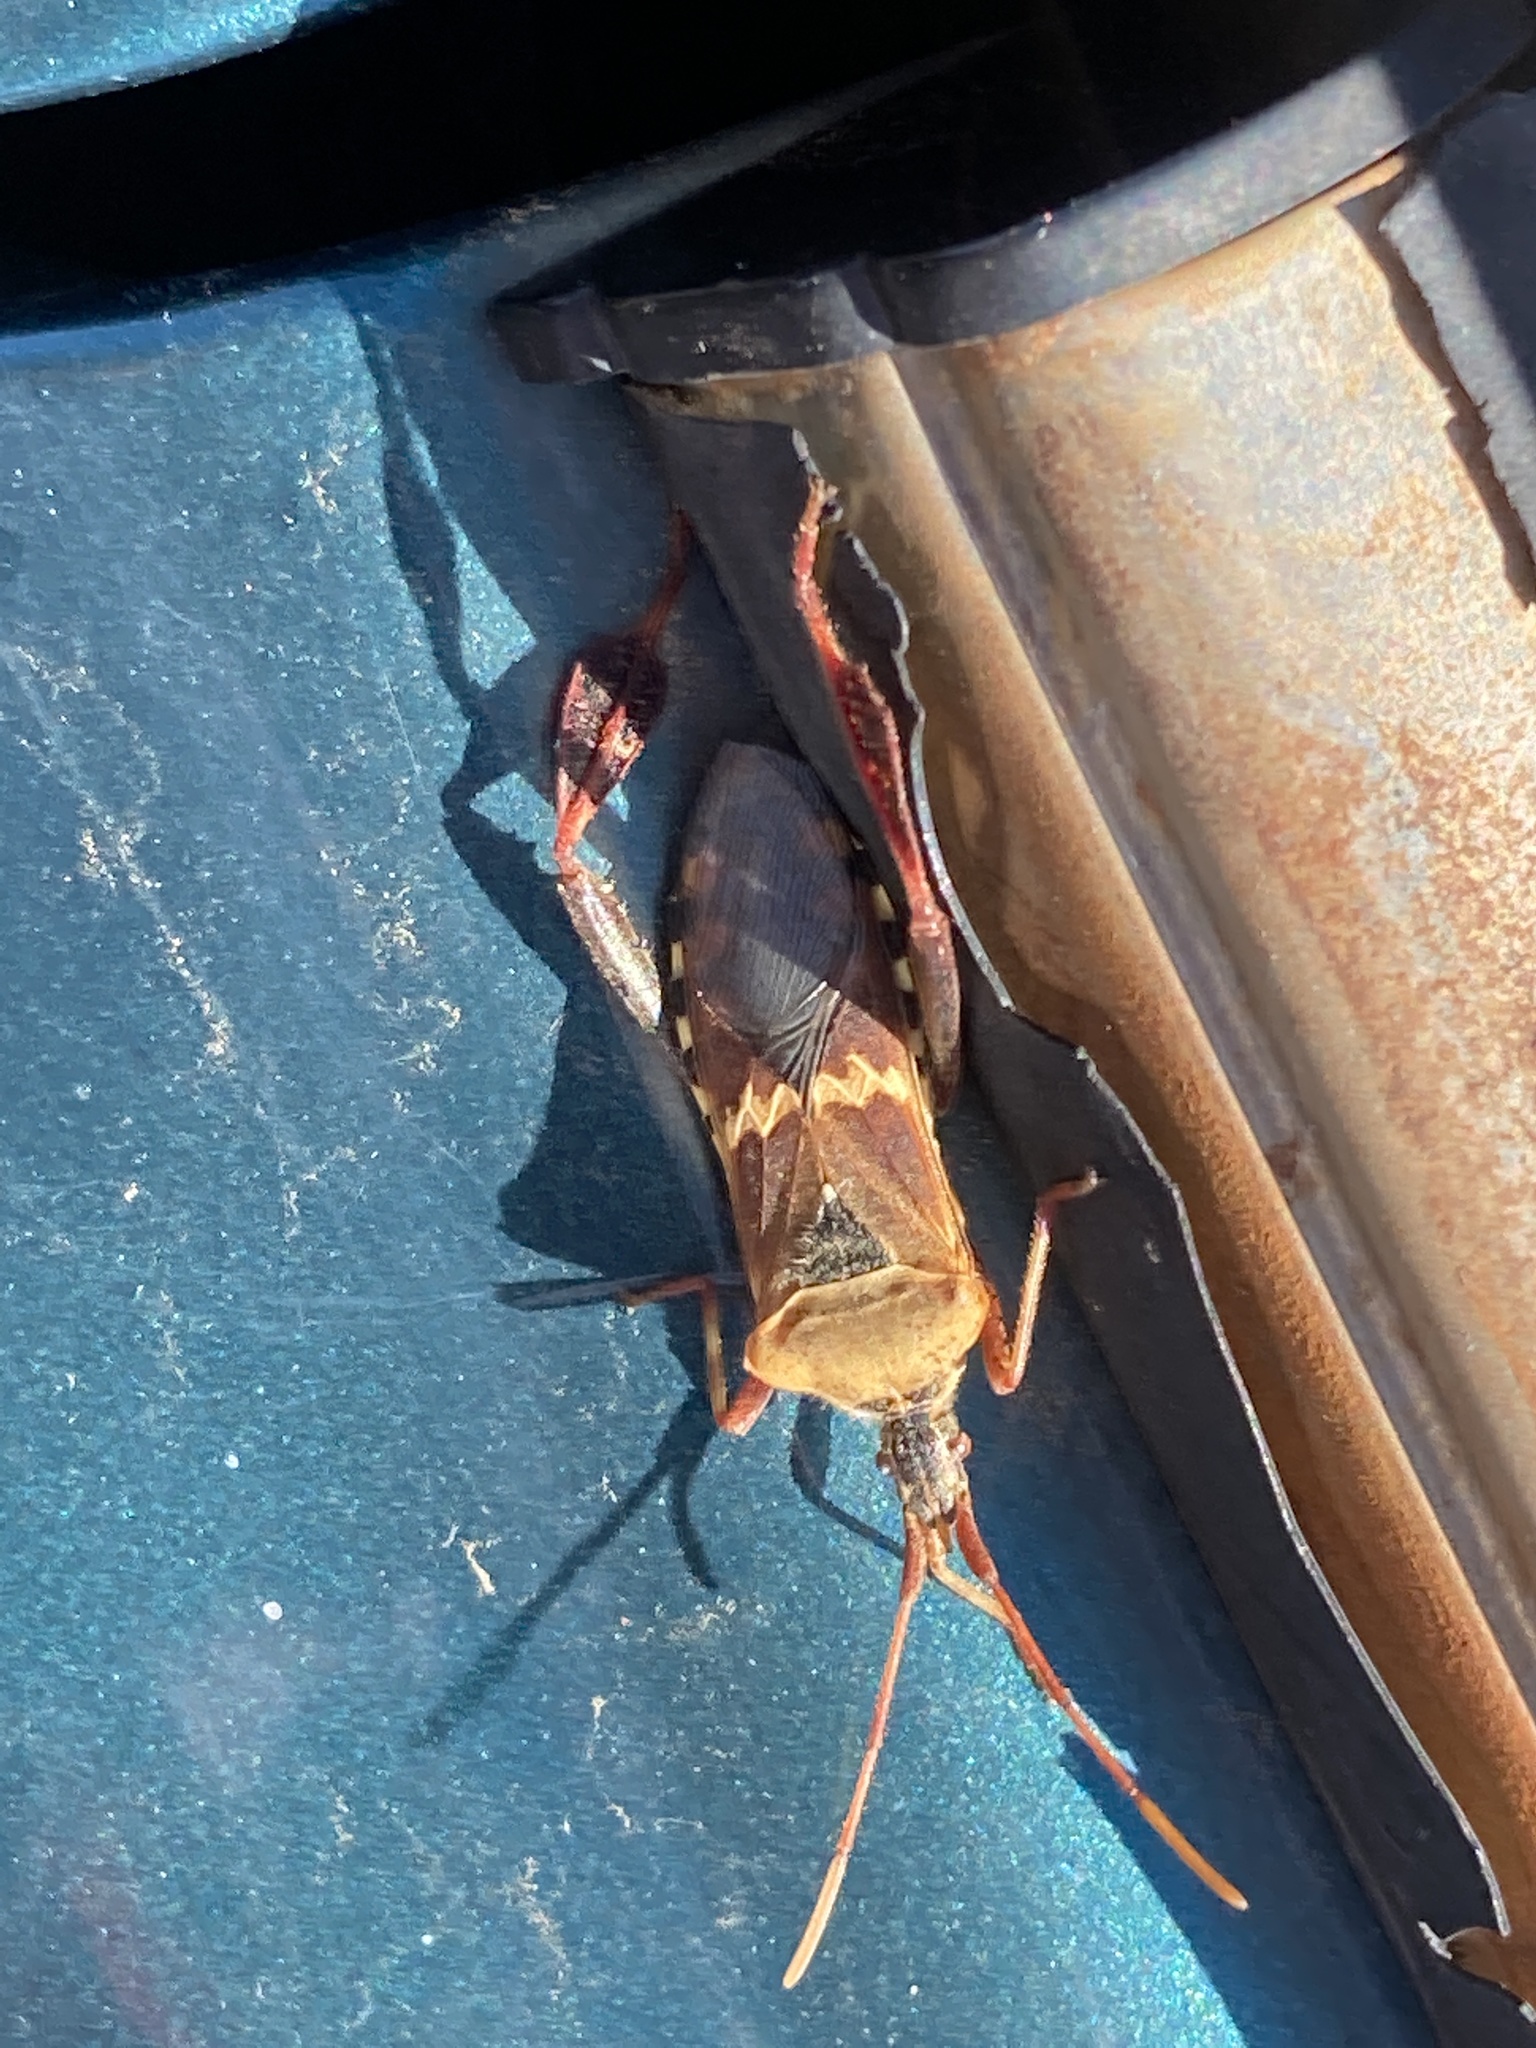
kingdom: Animalia
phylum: Arthropoda
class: Insecta
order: Hemiptera
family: Coreidae
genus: Leptoglossus
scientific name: Leptoglossus clypealis
